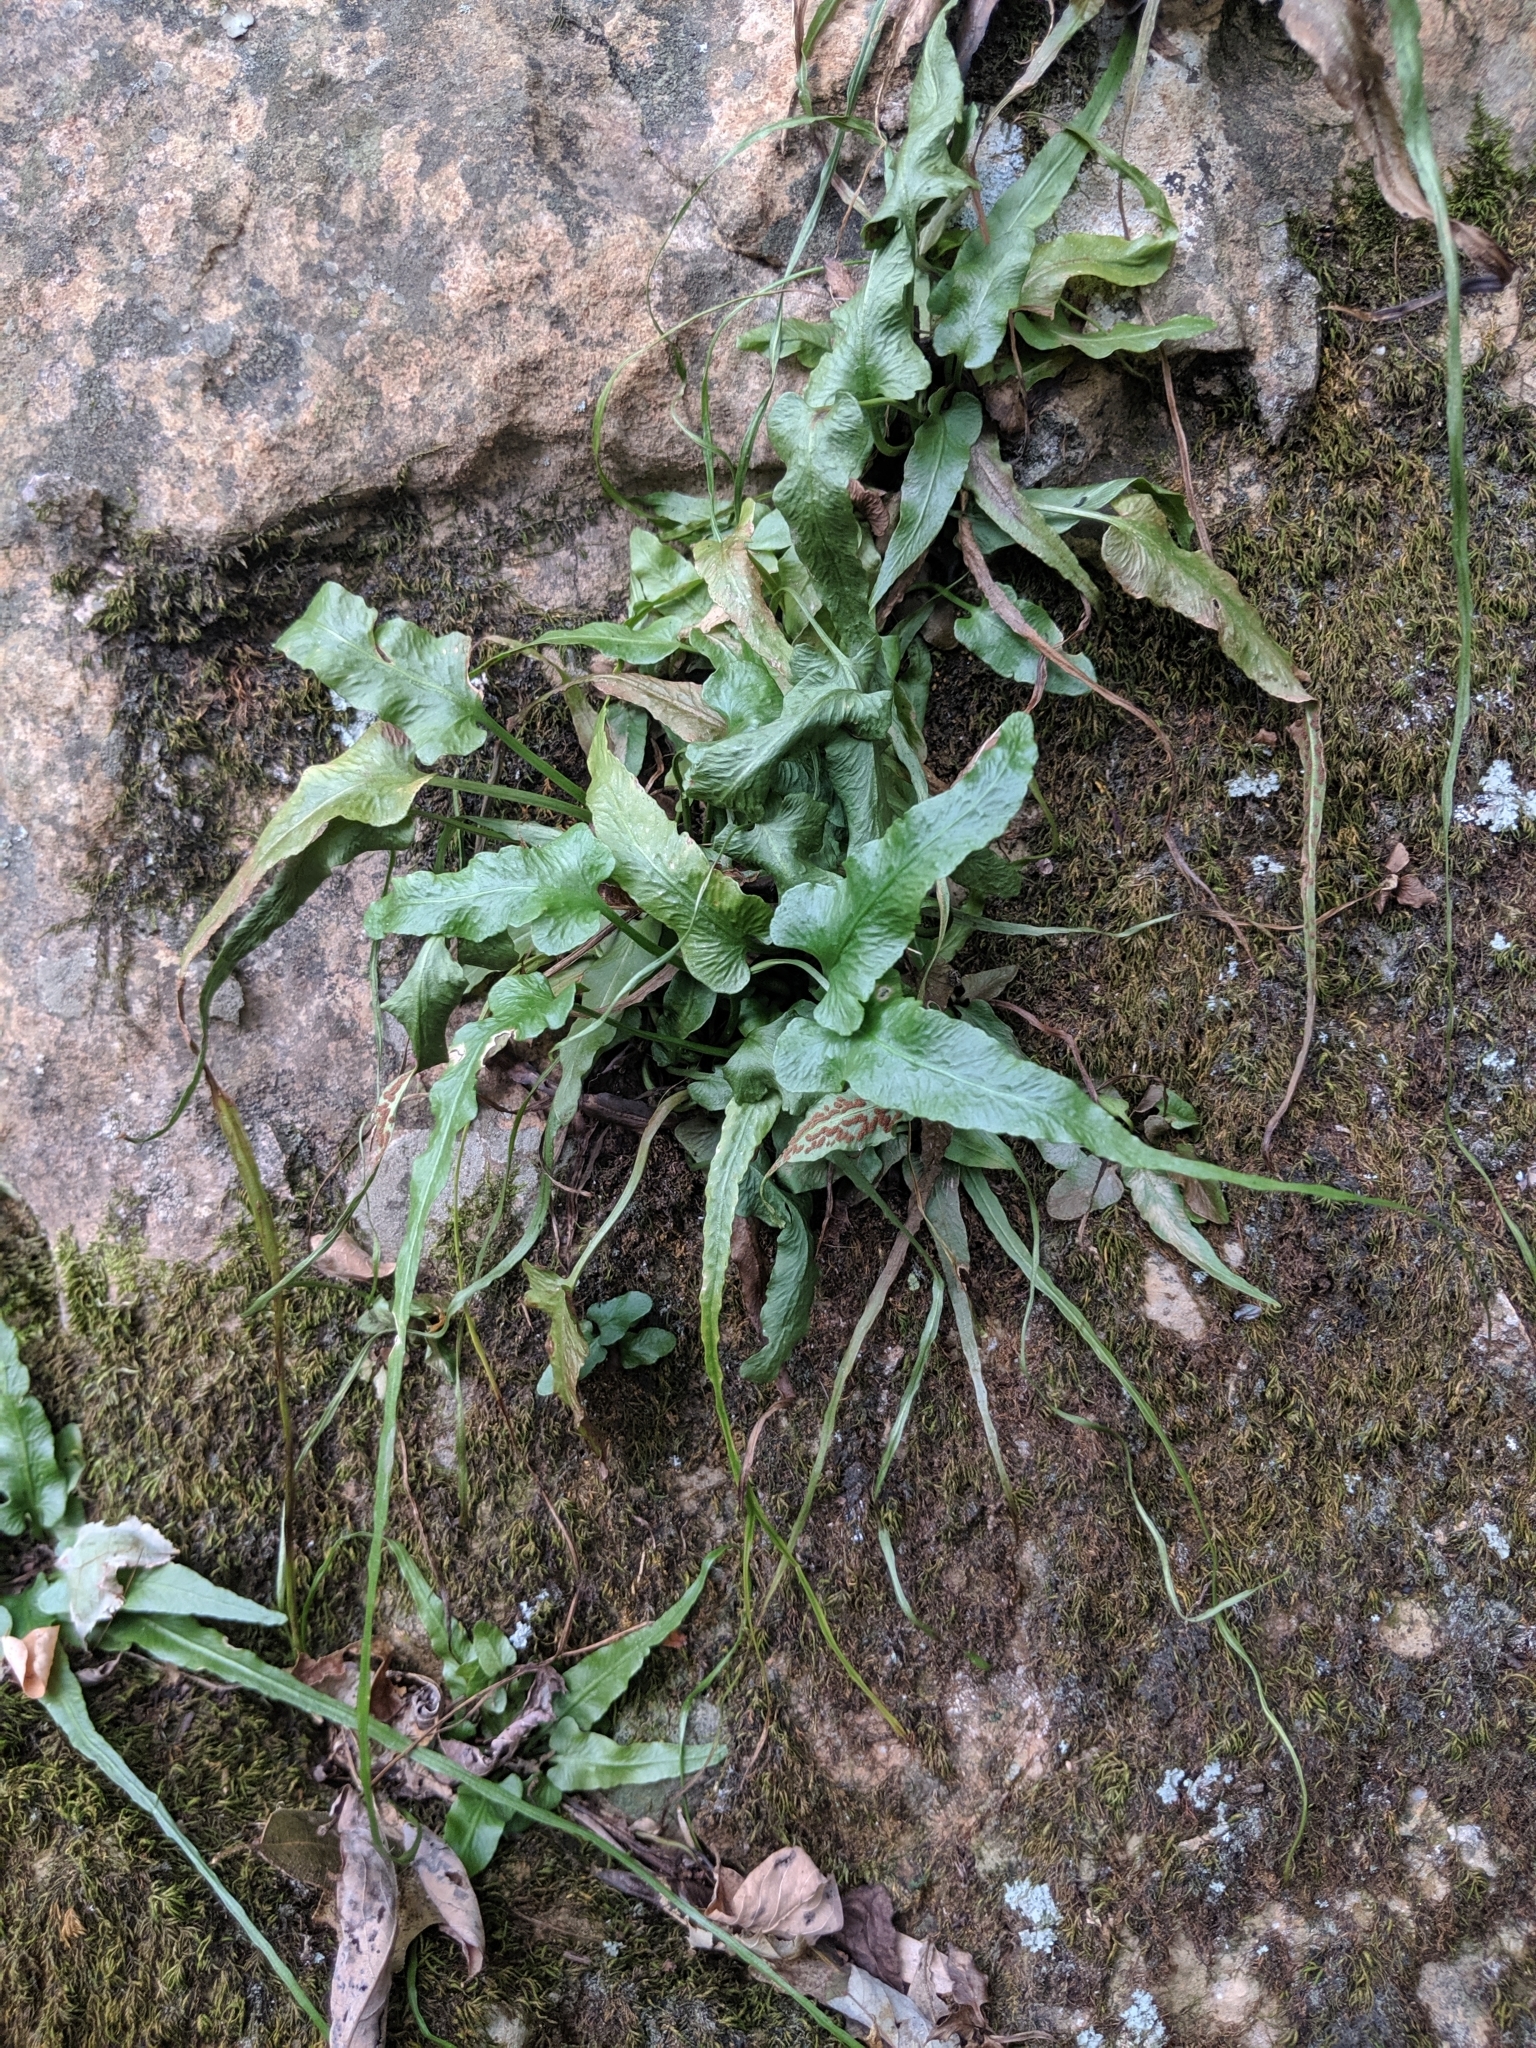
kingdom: Plantae
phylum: Tracheophyta
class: Polypodiopsida
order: Polypodiales
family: Aspleniaceae
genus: Asplenium
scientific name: Asplenium rhizophyllum
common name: Walking fern
